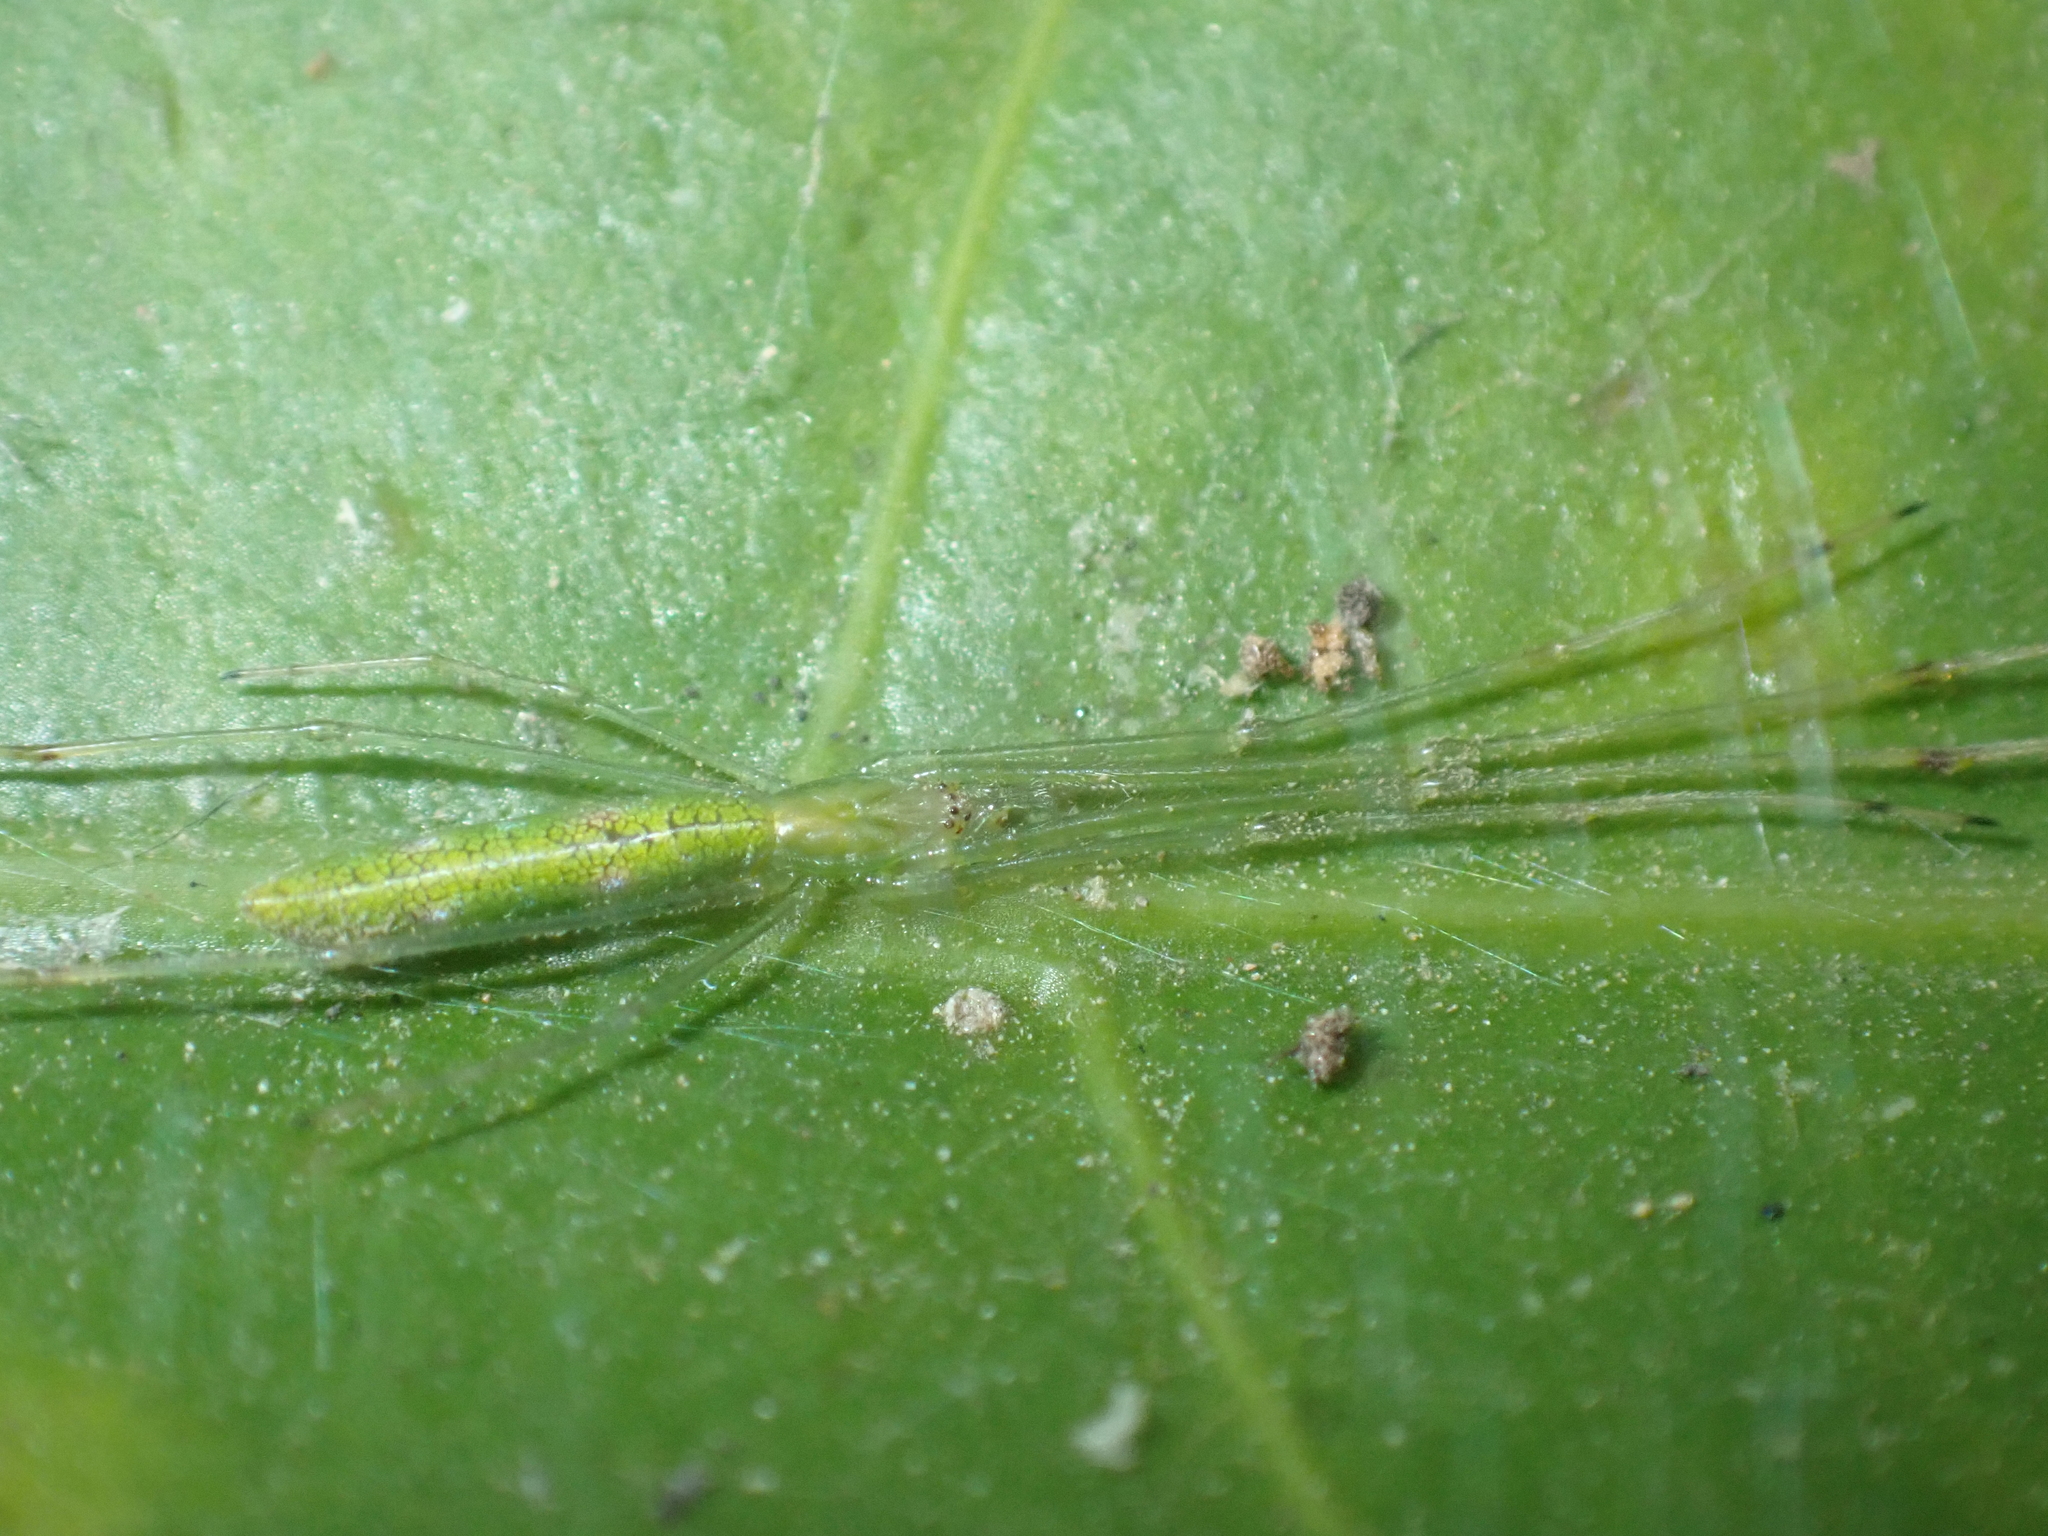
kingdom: Animalia
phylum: Arthropoda
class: Arachnida
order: Araneae
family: Tetragnathidae
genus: Tetragnatha
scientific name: Tetragnatha hasselti
